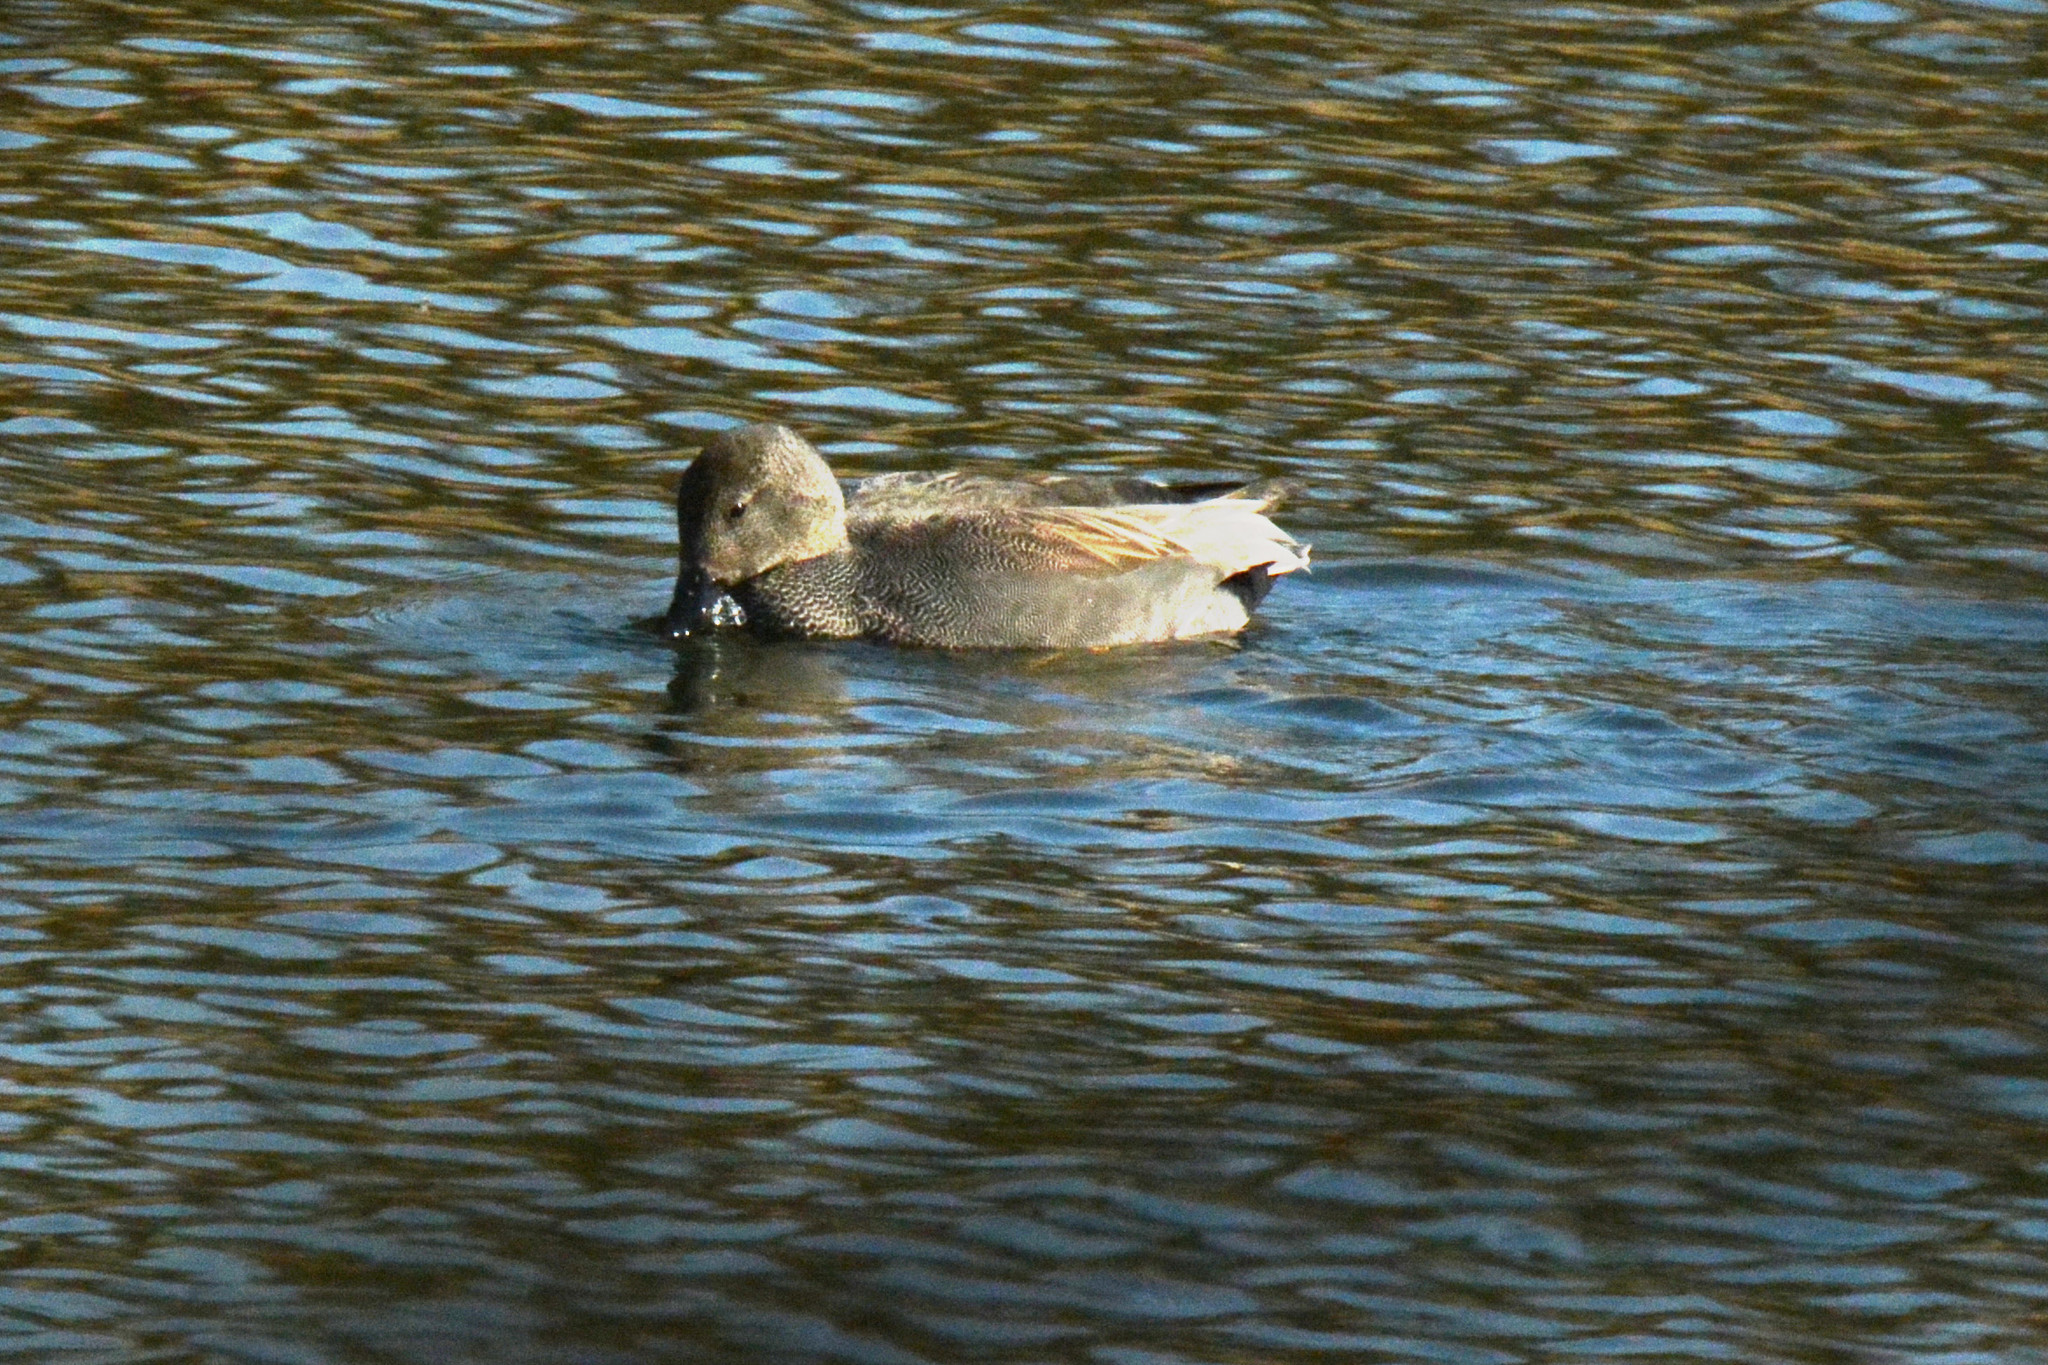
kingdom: Animalia
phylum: Chordata
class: Aves
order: Anseriformes
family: Anatidae
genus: Mareca
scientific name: Mareca strepera
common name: Gadwall
